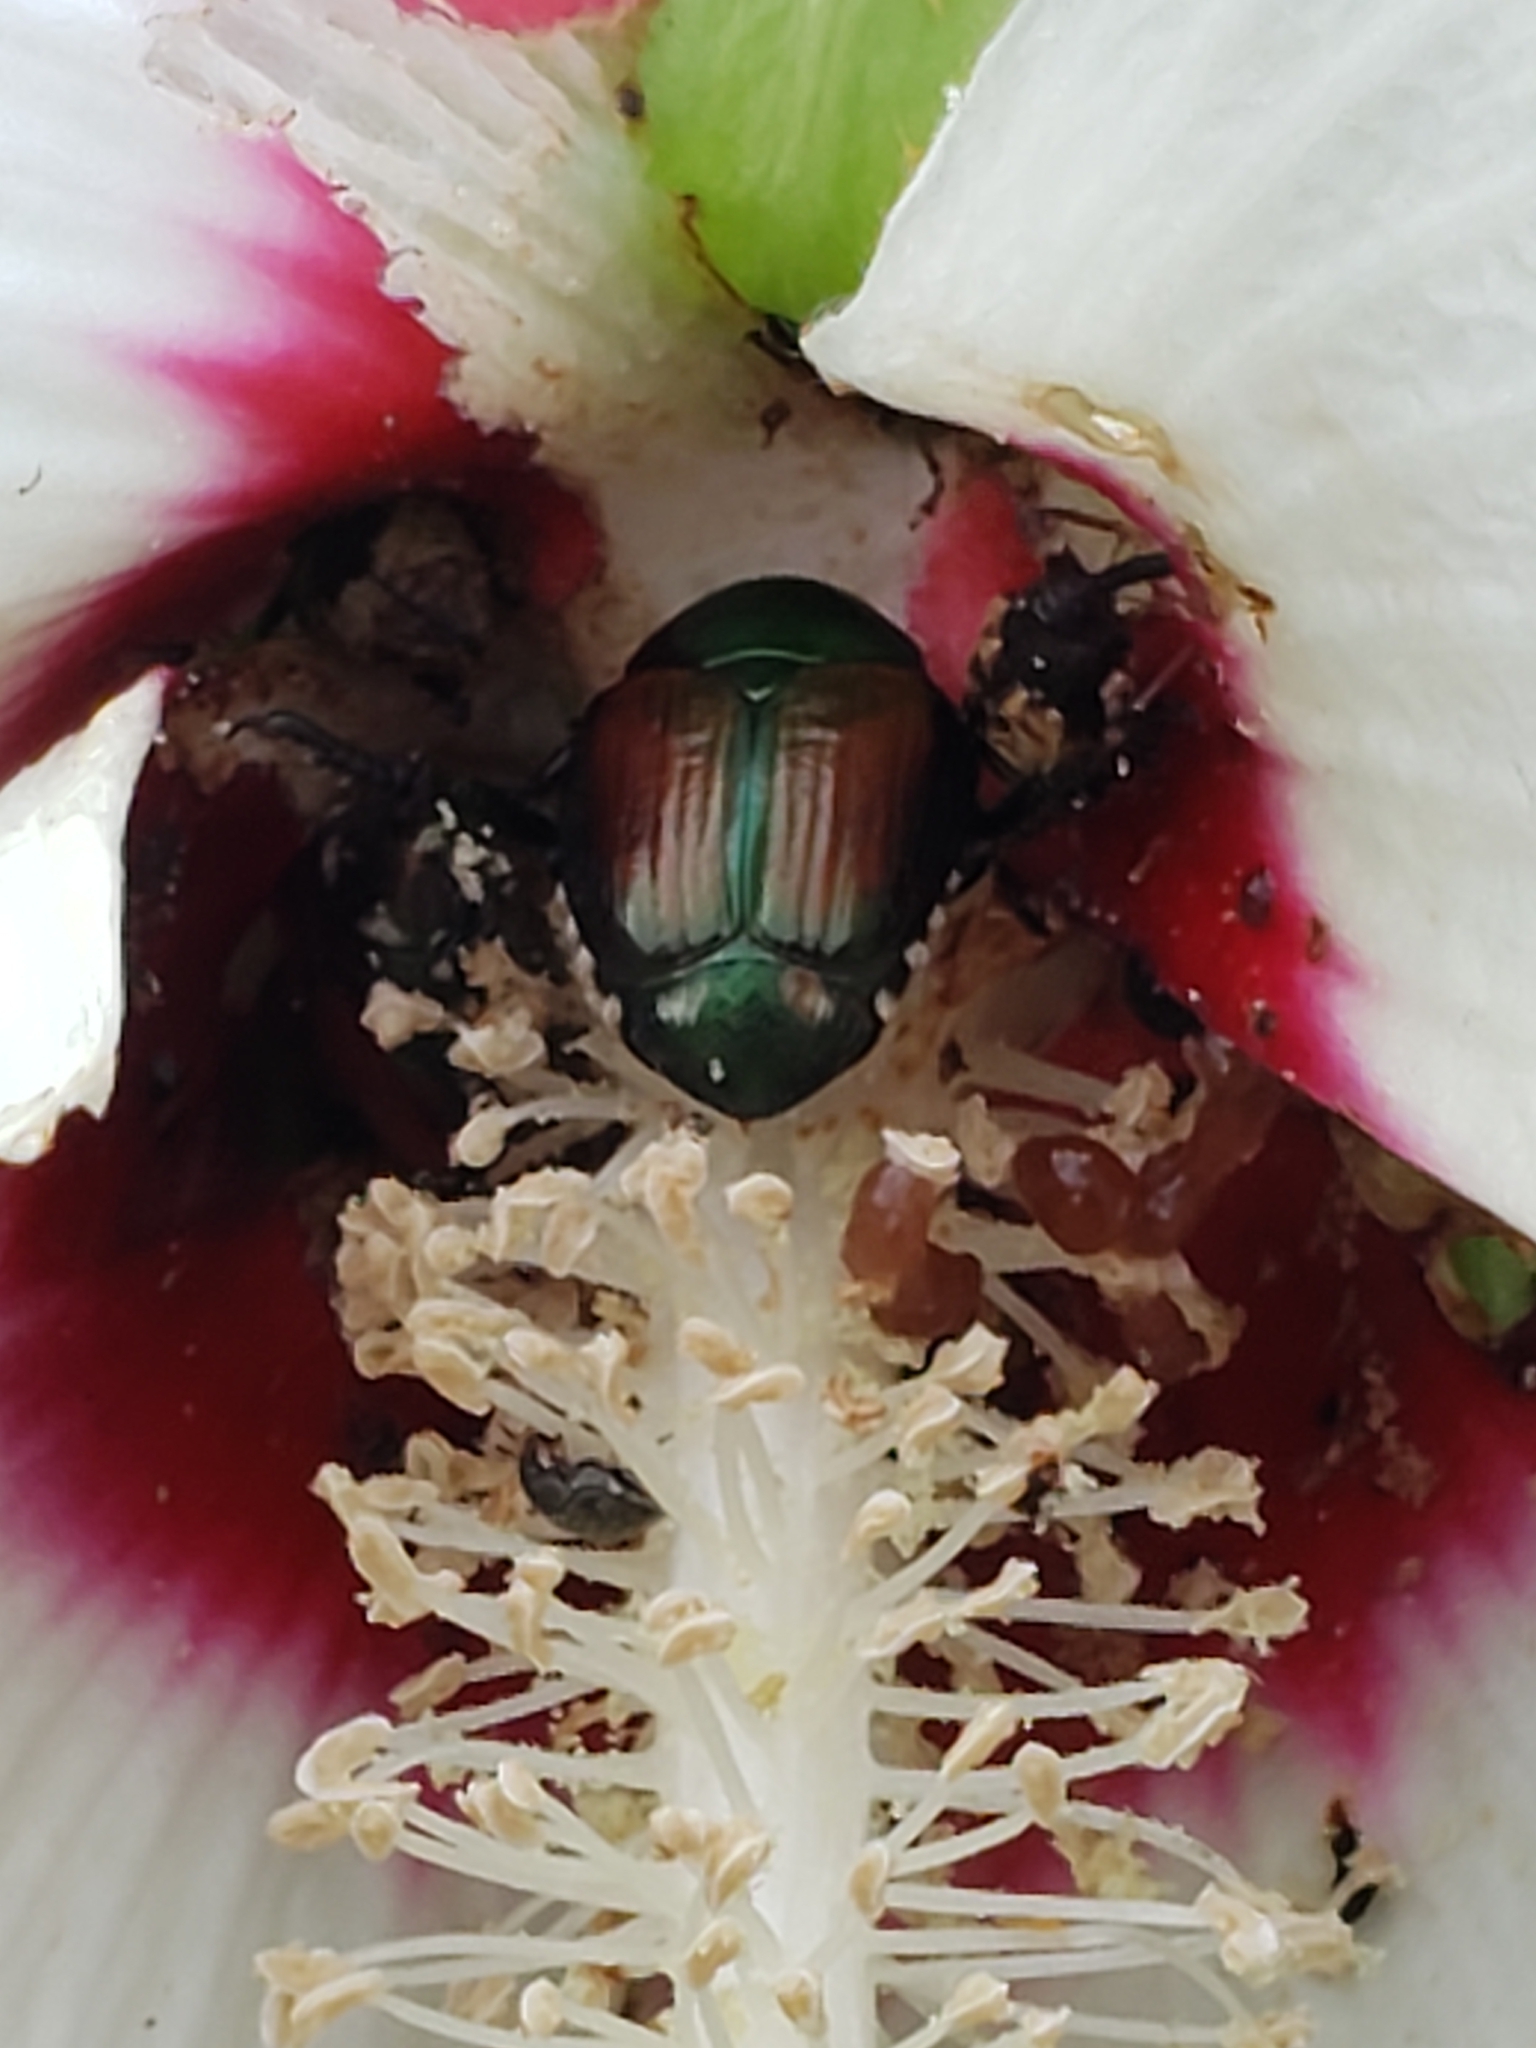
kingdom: Animalia
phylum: Arthropoda
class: Insecta
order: Coleoptera
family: Scarabaeidae
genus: Popillia
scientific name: Popillia japonica
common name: Japanese beetle
